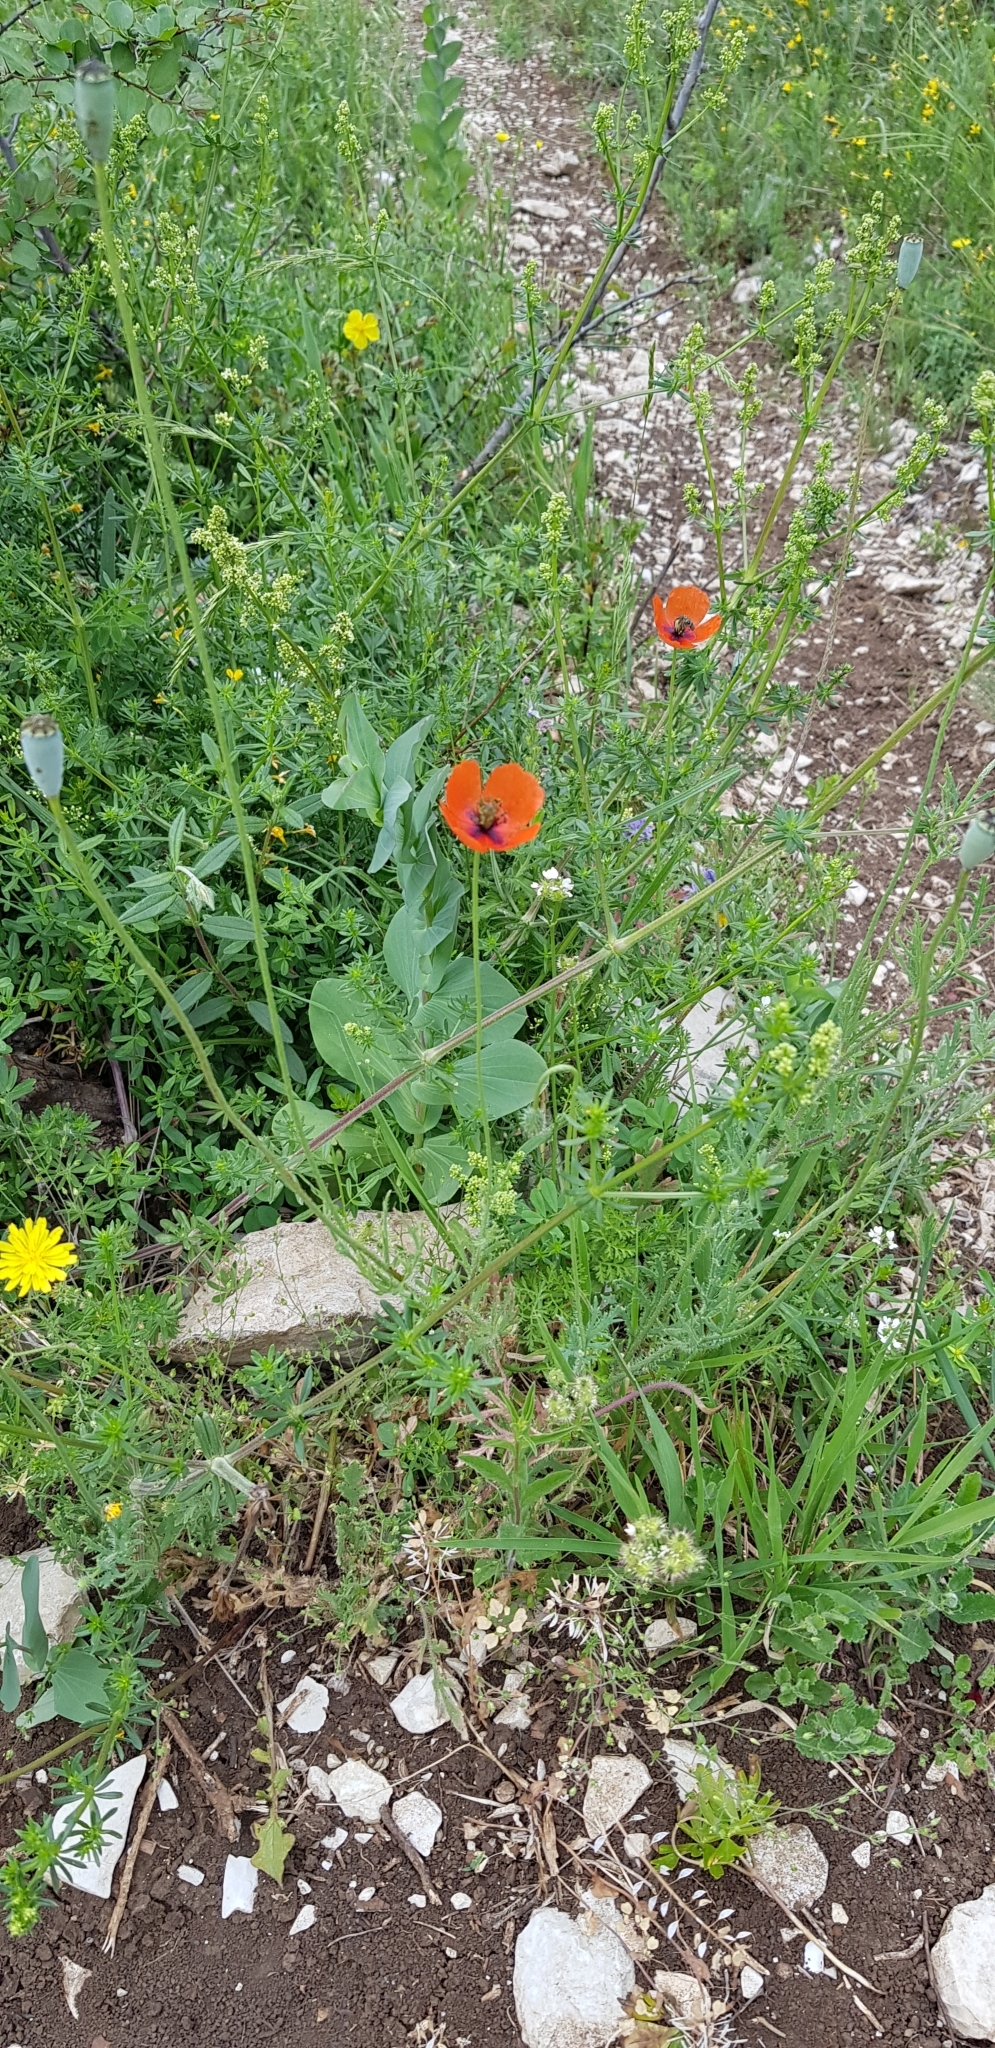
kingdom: Plantae
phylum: Tracheophyta
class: Magnoliopsida
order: Ranunculales
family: Papaveraceae
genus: Papaver
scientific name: Papaver dubium
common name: Long-headed poppy
